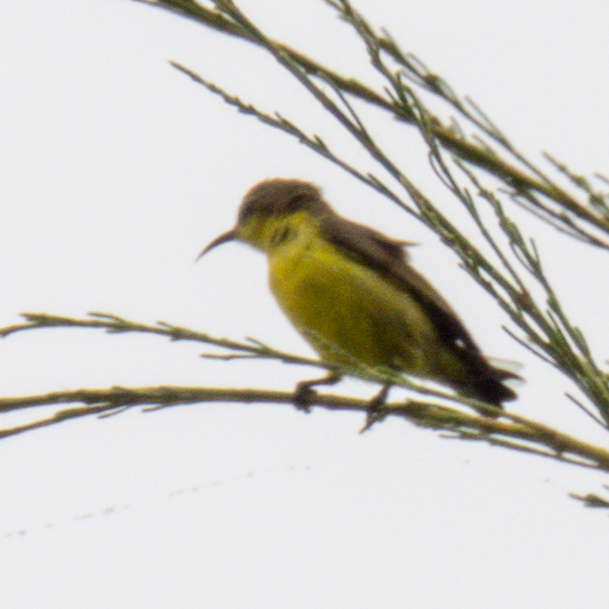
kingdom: Animalia
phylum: Chordata
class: Aves
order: Passeriformes
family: Nectariniidae
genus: Cinnyris
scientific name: Cinnyris
